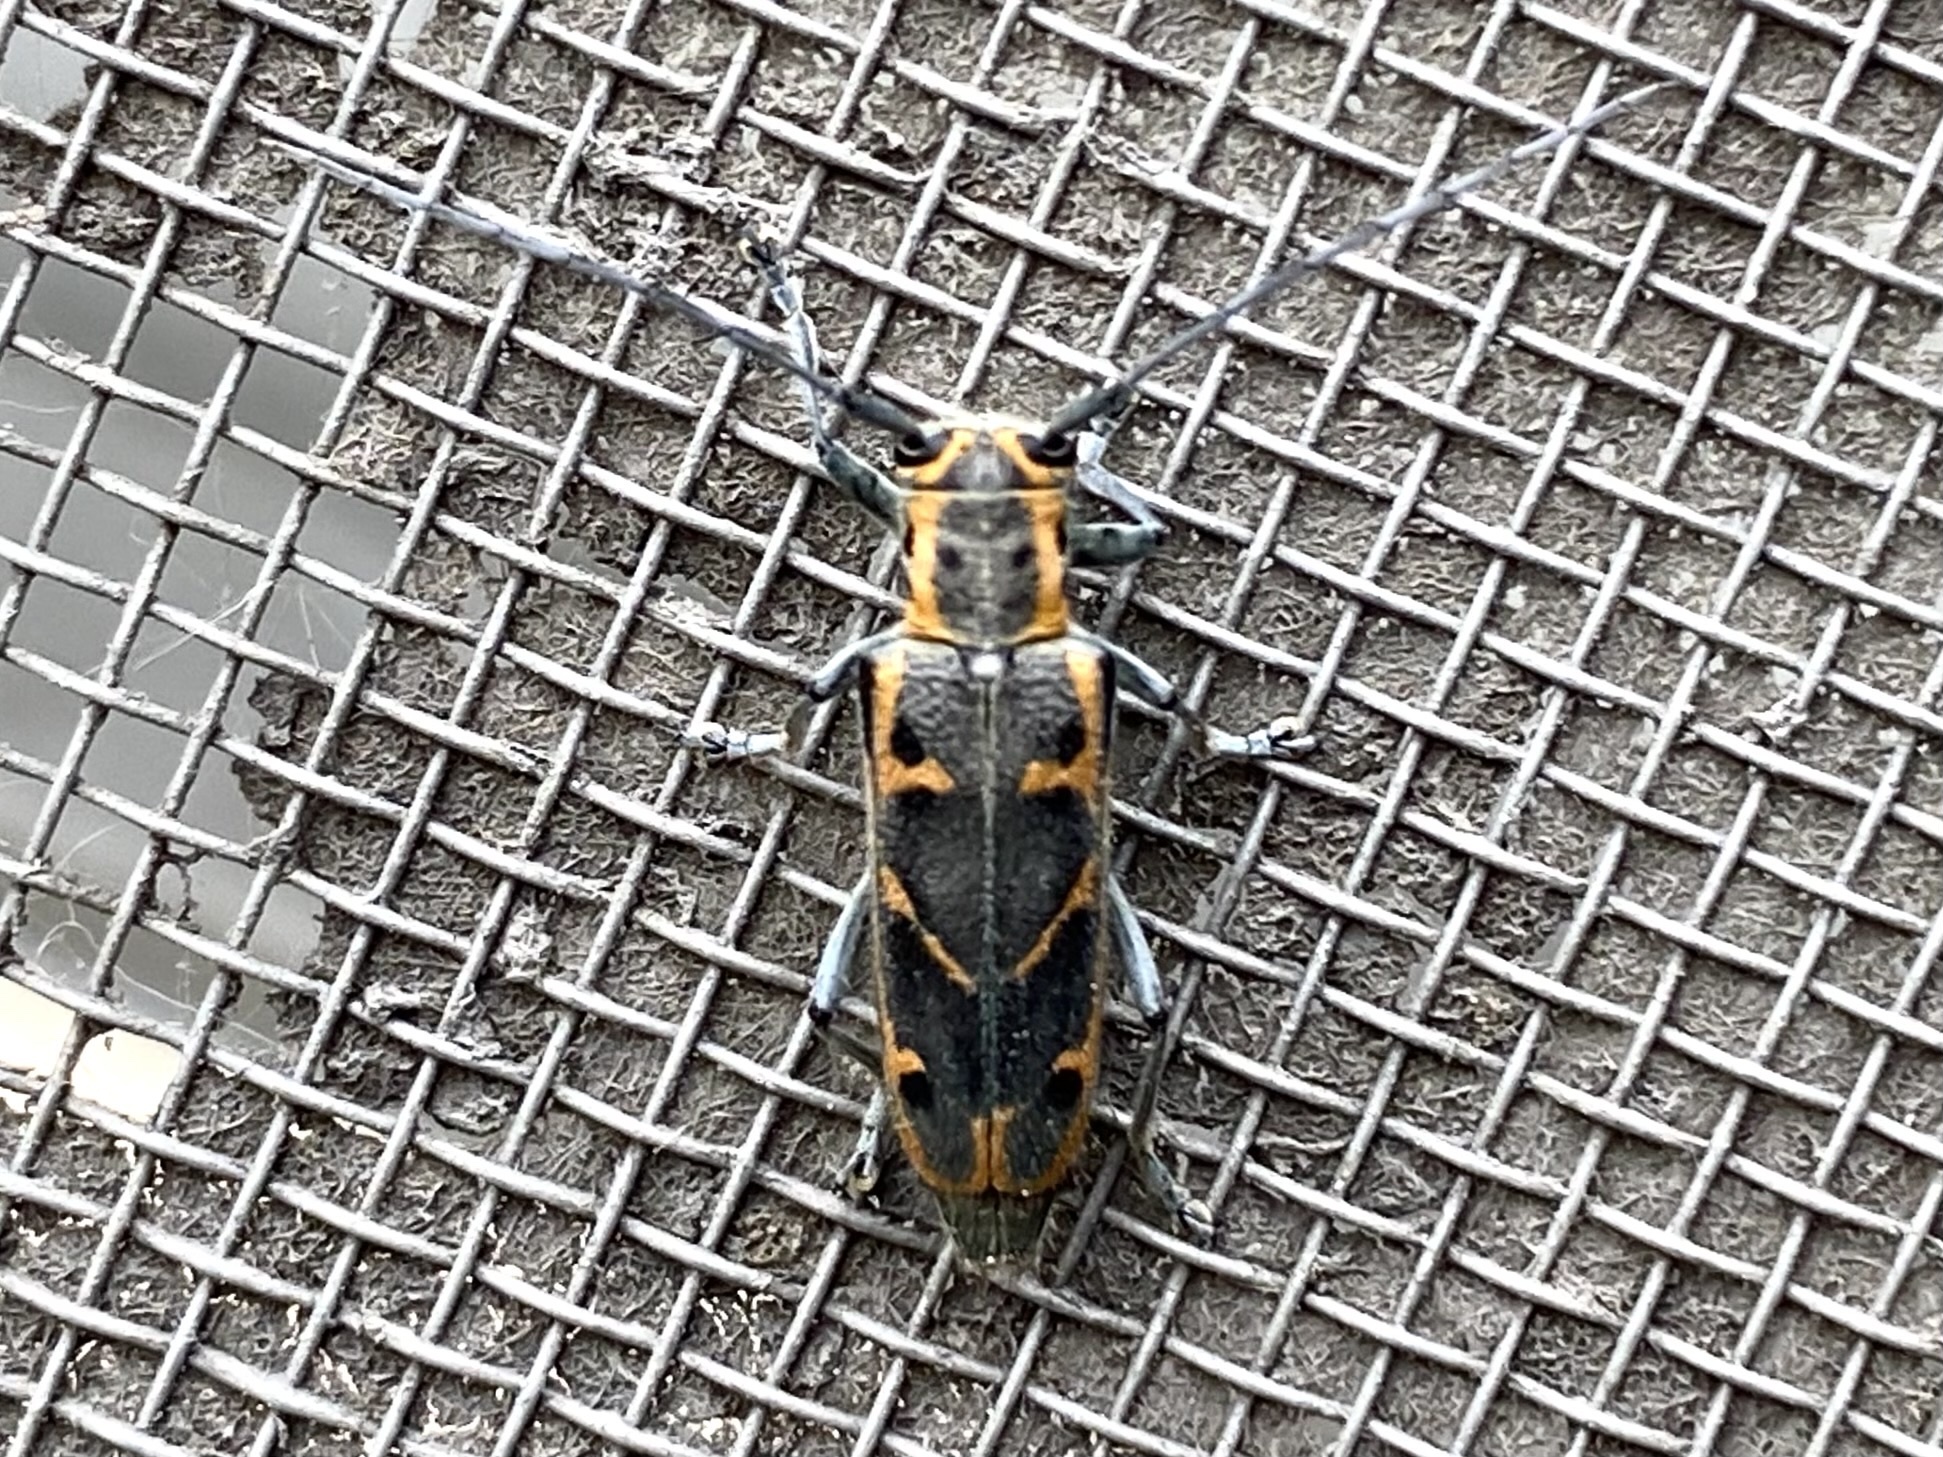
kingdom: Animalia
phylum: Arthropoda
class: Insecta
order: Coleoptera
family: Cerambycidae
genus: Saperda
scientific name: Saperda tridentata
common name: Elm borer
